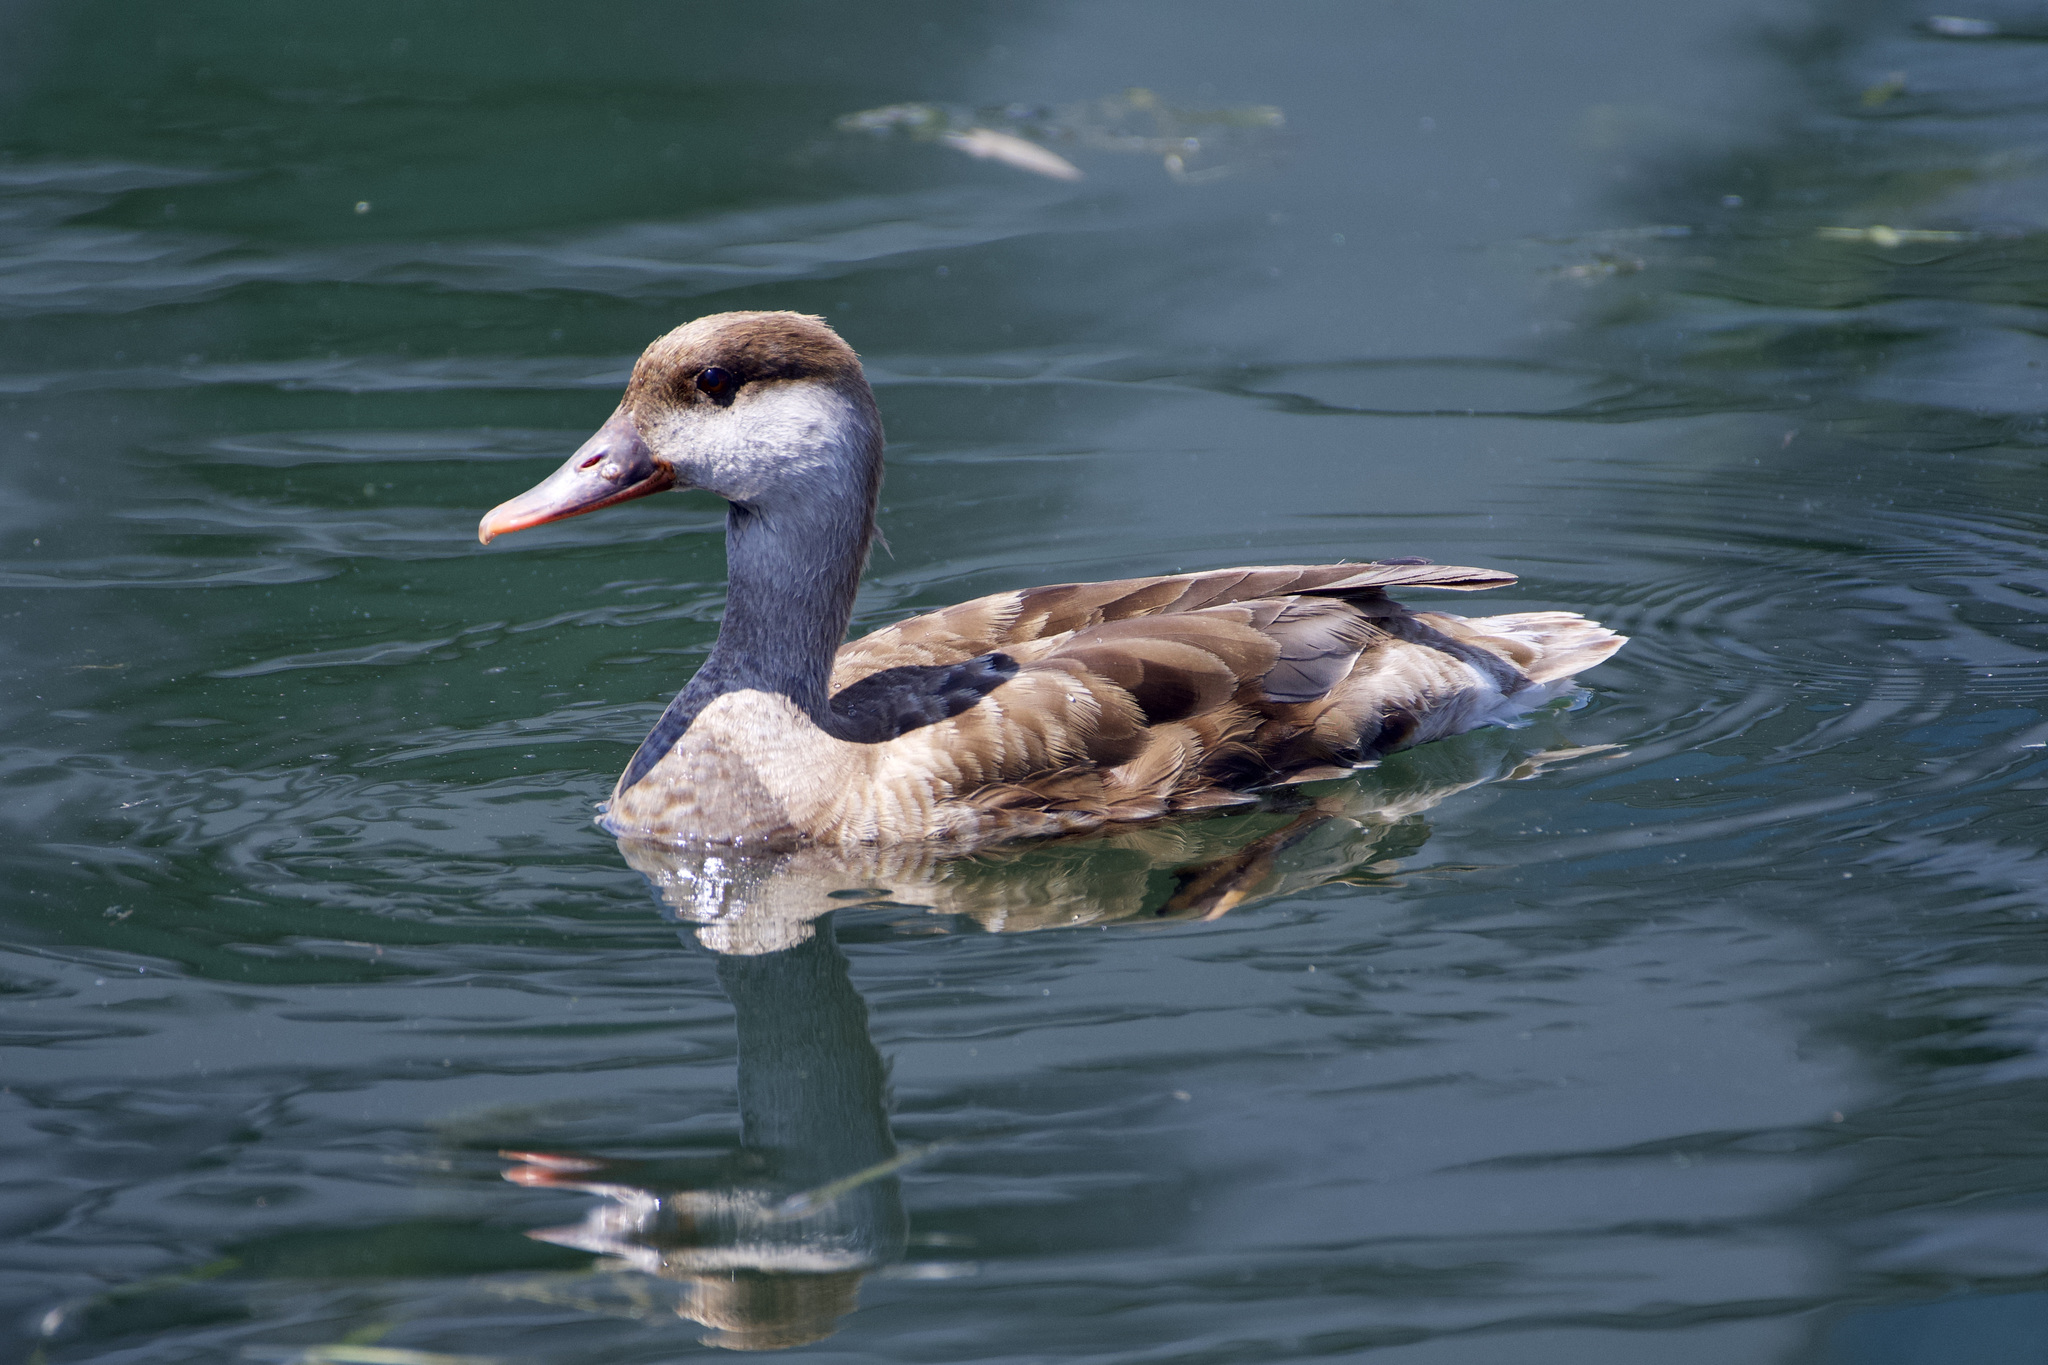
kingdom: Animalia
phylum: Chordata
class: Aves
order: Anseriformes
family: Anatidae
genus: Netta
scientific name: Netta rufina
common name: Red-crested pochard
